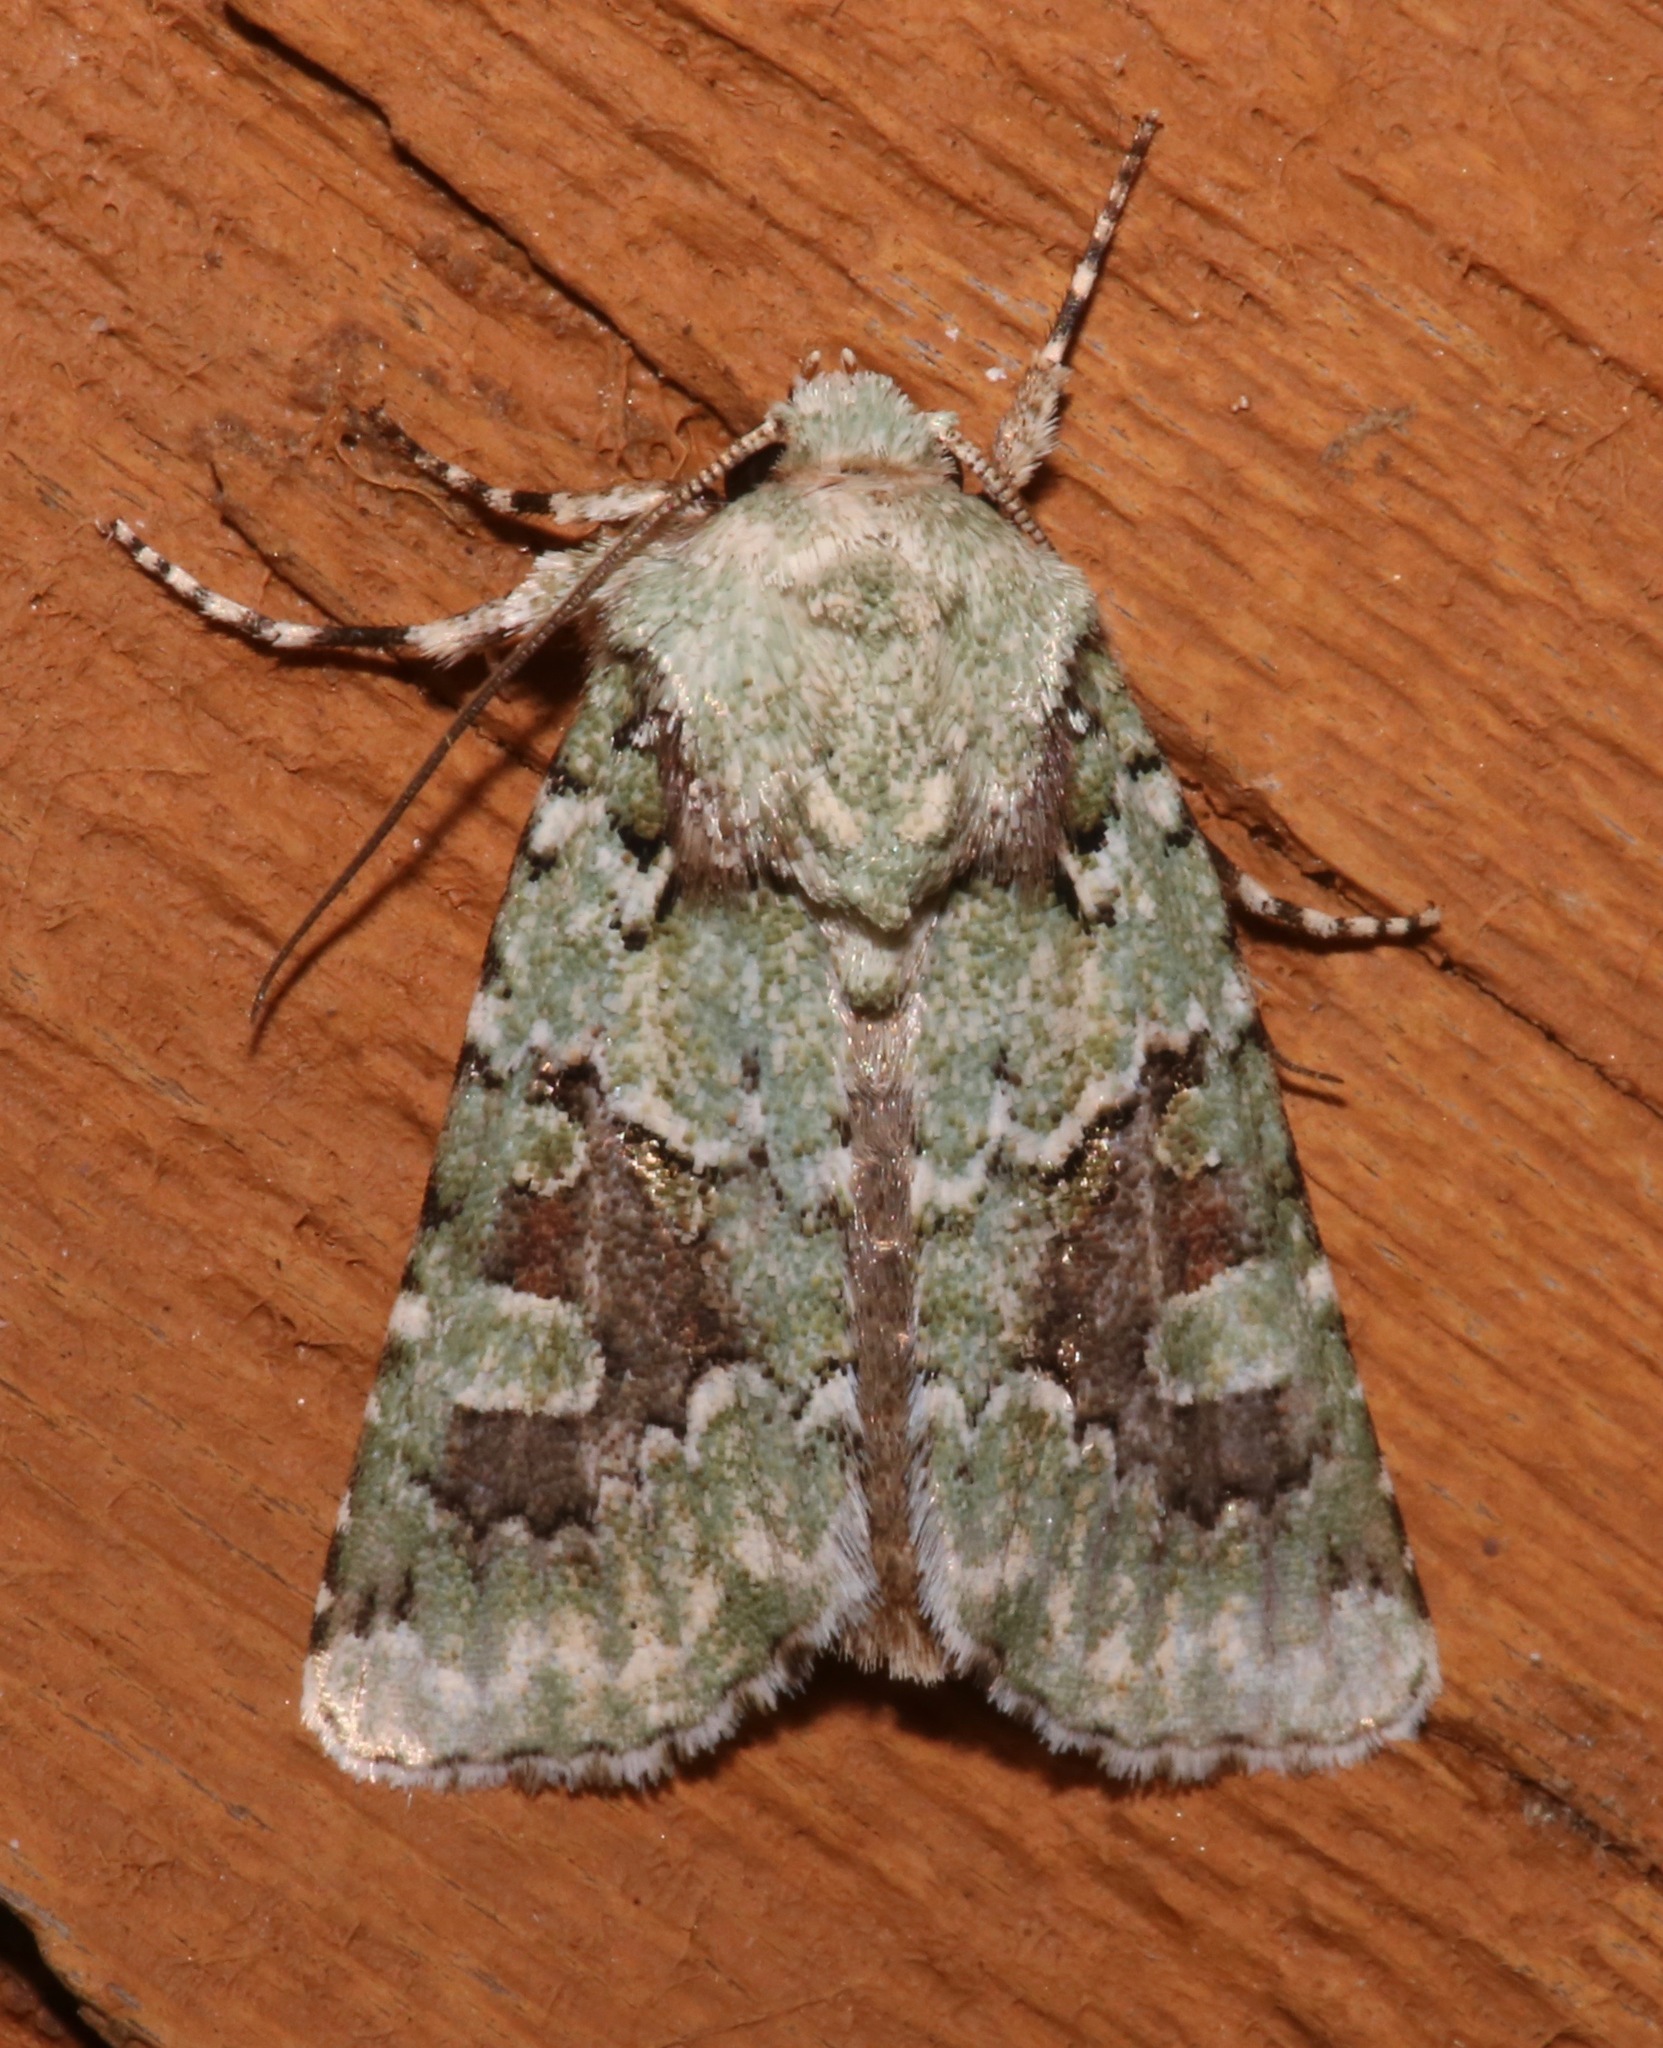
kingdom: Animalia
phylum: Arthropoda
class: Insecta
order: Lepidoptera
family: Noctuidae
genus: Lacinipolia
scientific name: Lacinipolia laudabilis
